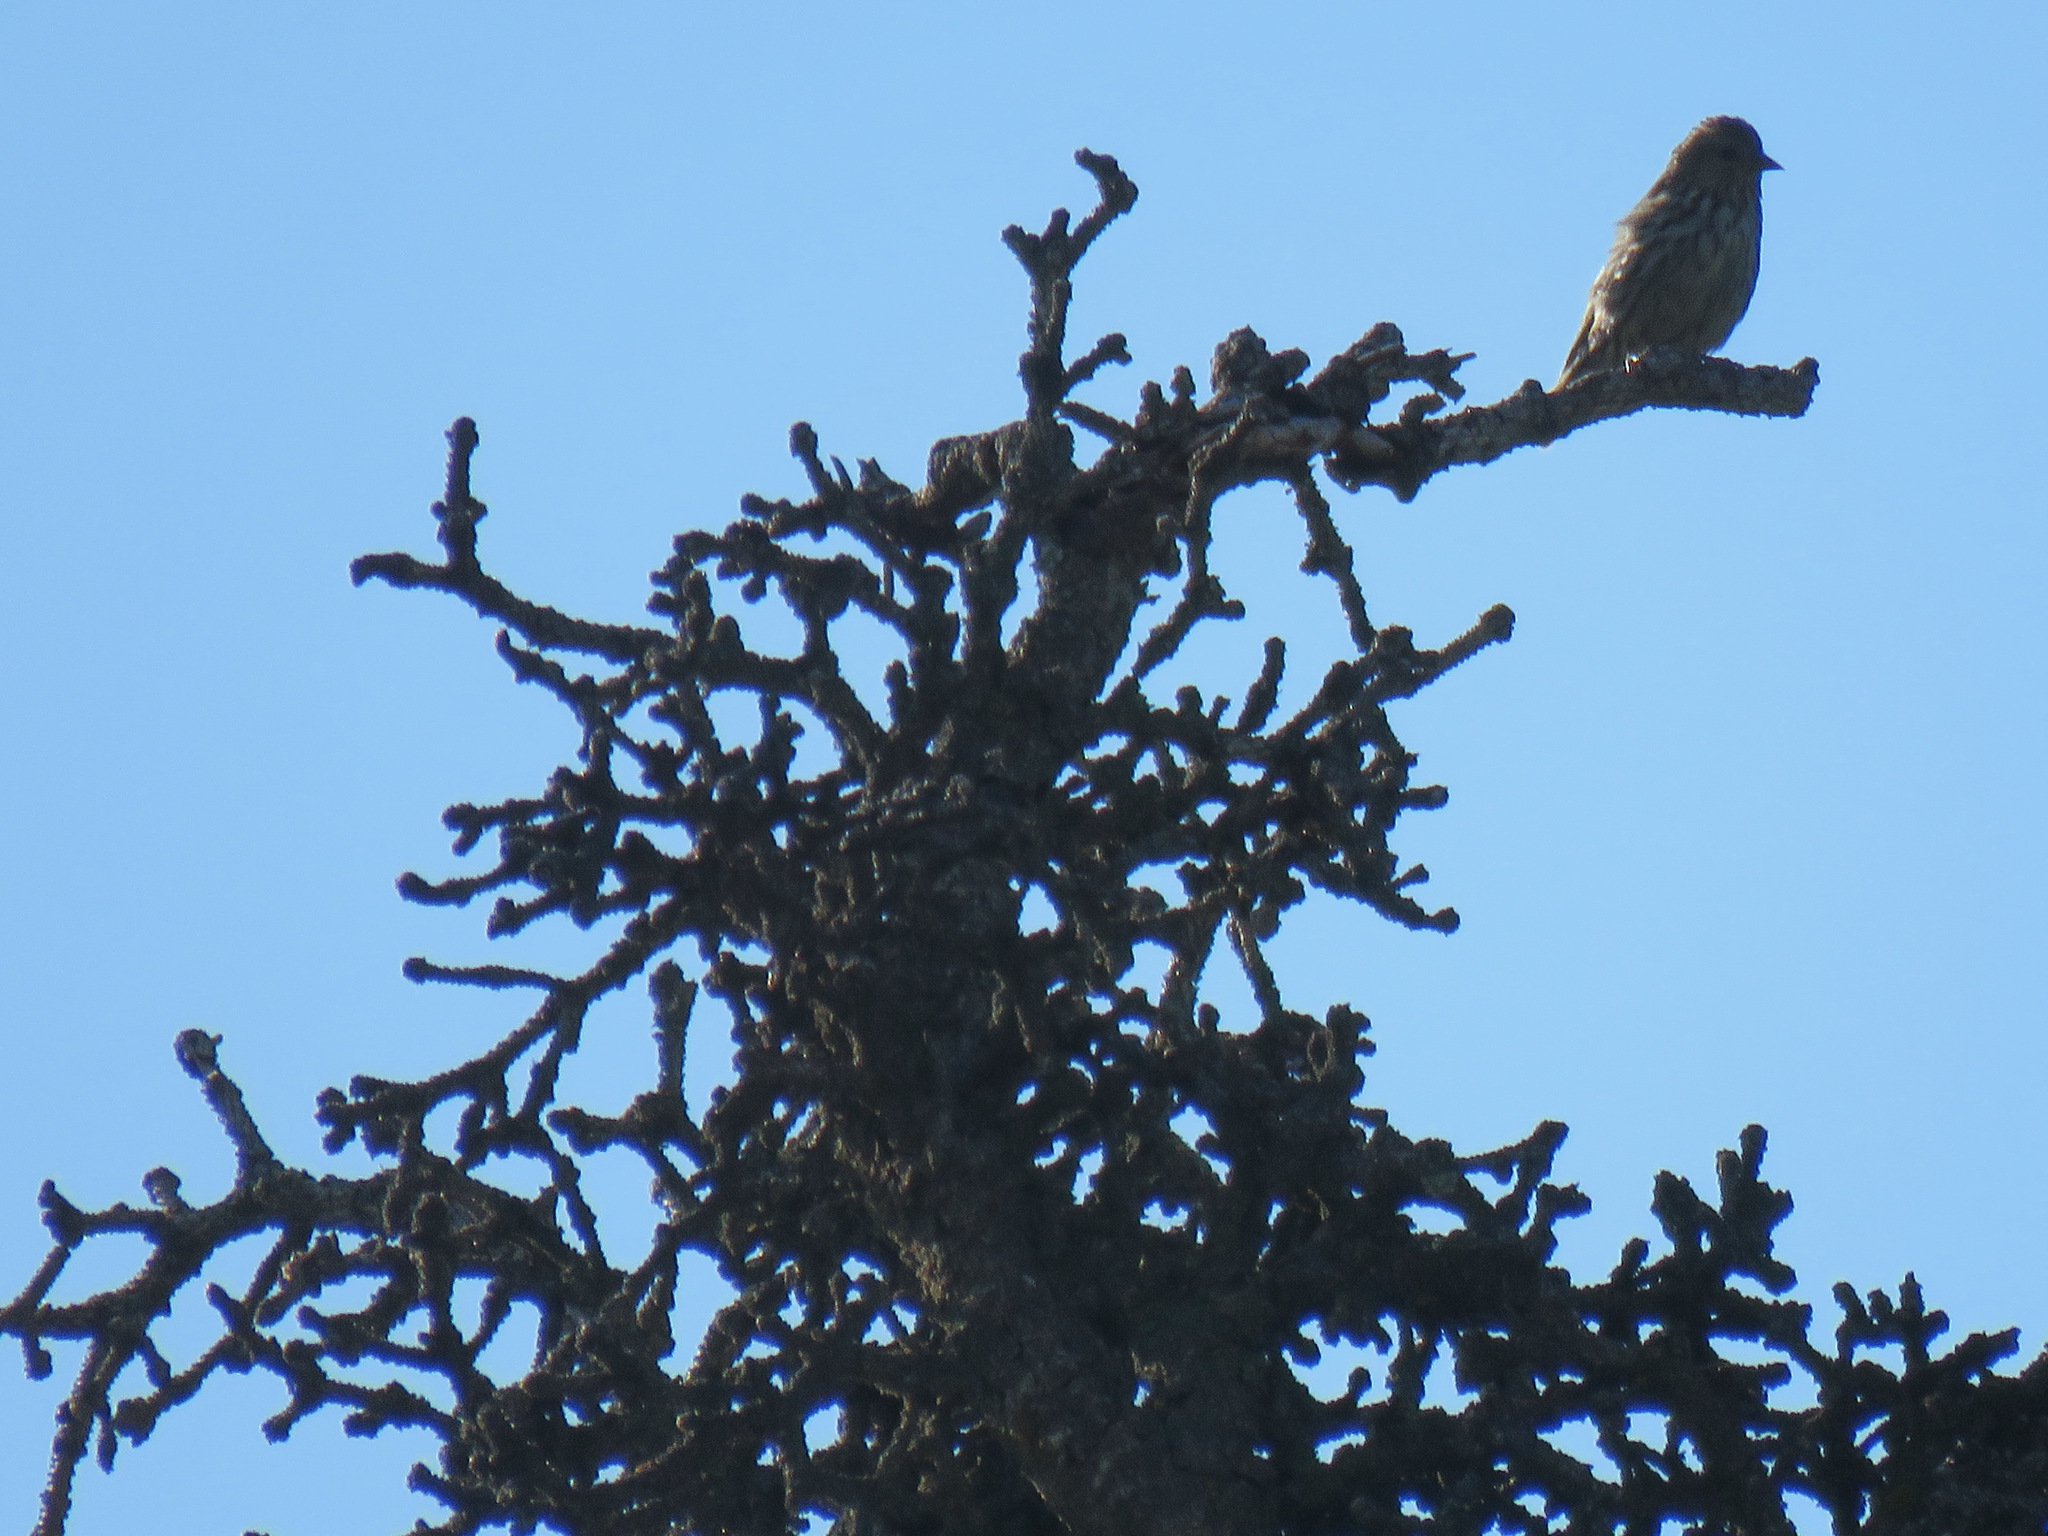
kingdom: Animalia
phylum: Chordata
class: Aves
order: Passeriformes
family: Fringillidae
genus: Spinus
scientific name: Spinus pinus
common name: Pine siskin
